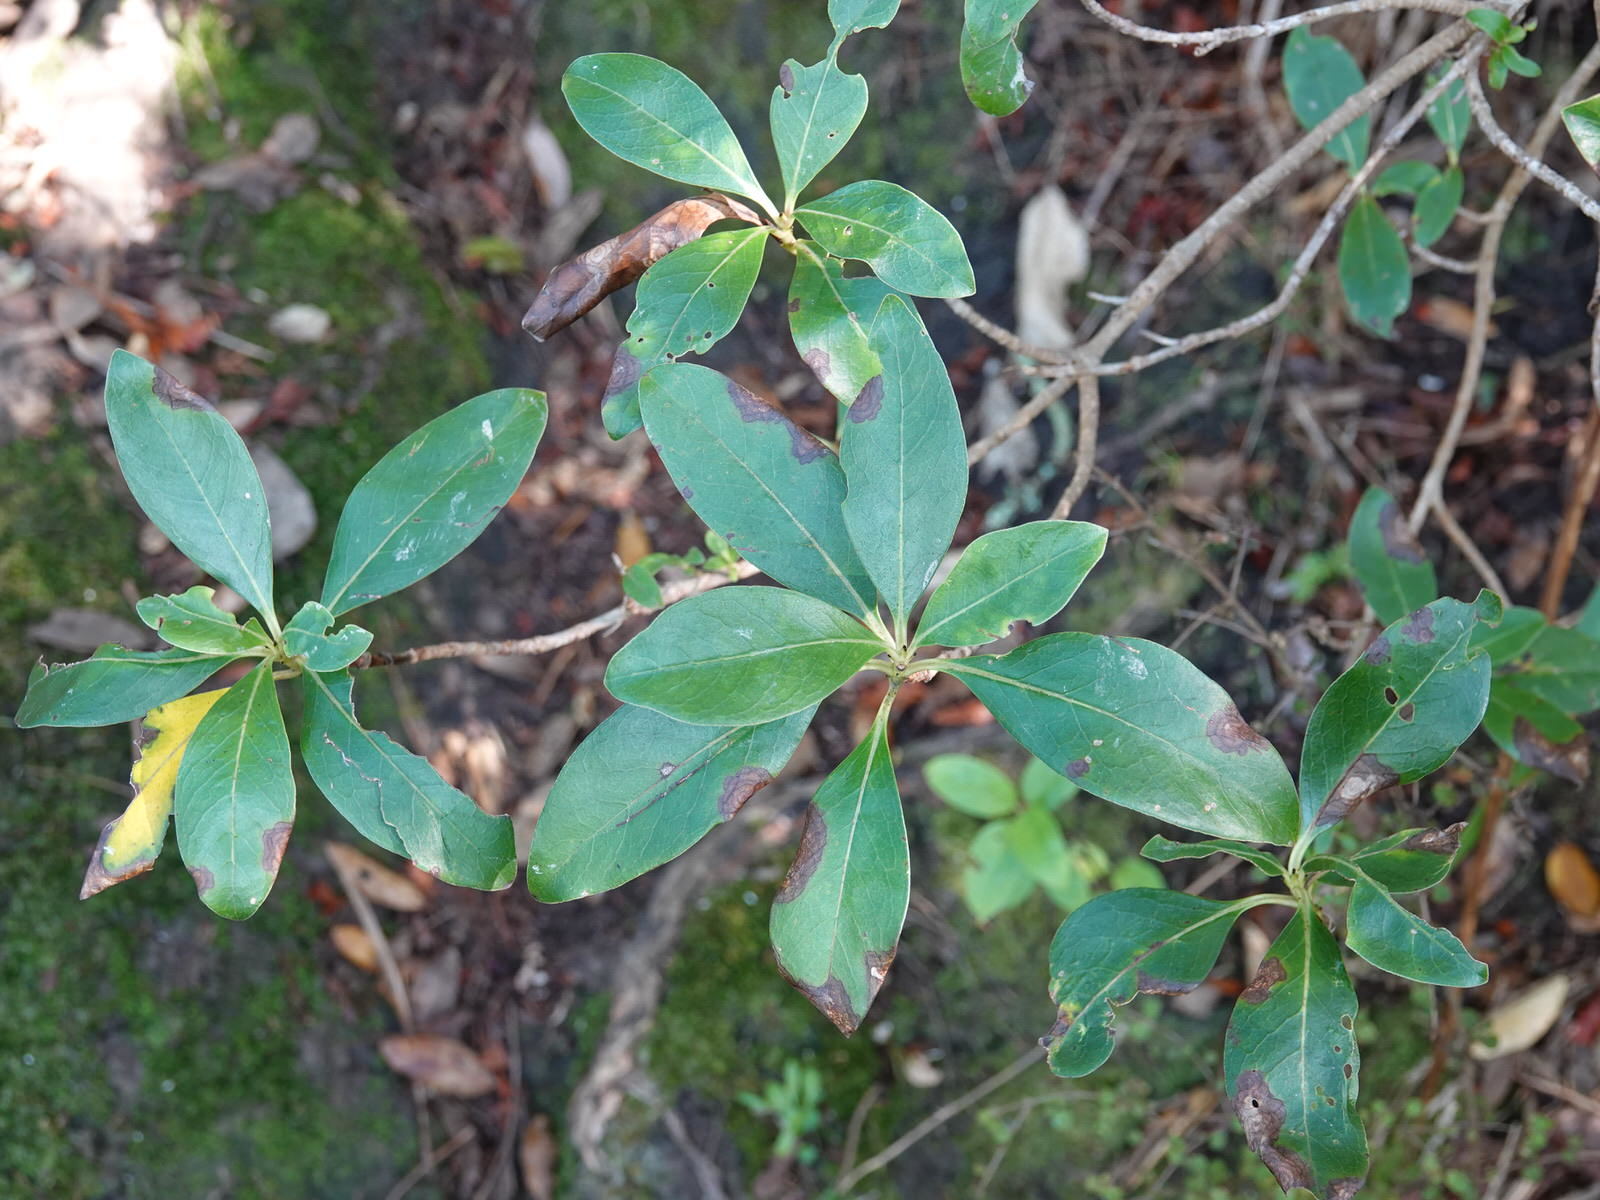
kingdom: Plantae
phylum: Tracheophyta
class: Magnoliopsida
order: Gentianales
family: Rubiaceae
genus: Coprosma
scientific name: Coprosma robusta
